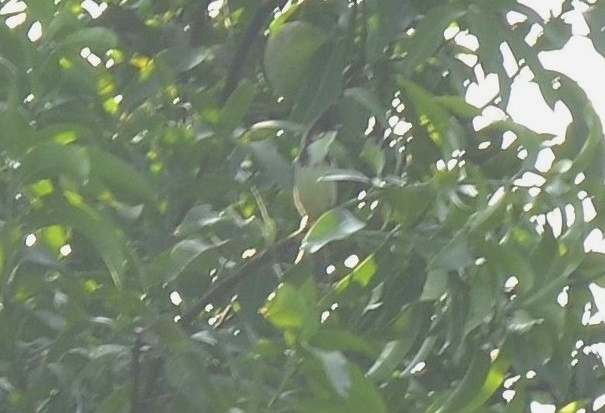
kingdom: Animalia
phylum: Chordata
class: Aves
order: Passeriformes
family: Pycnonotidae
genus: Pycnonotus
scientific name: Pycnonotus jocosus
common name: Red-whiskered bulbul
